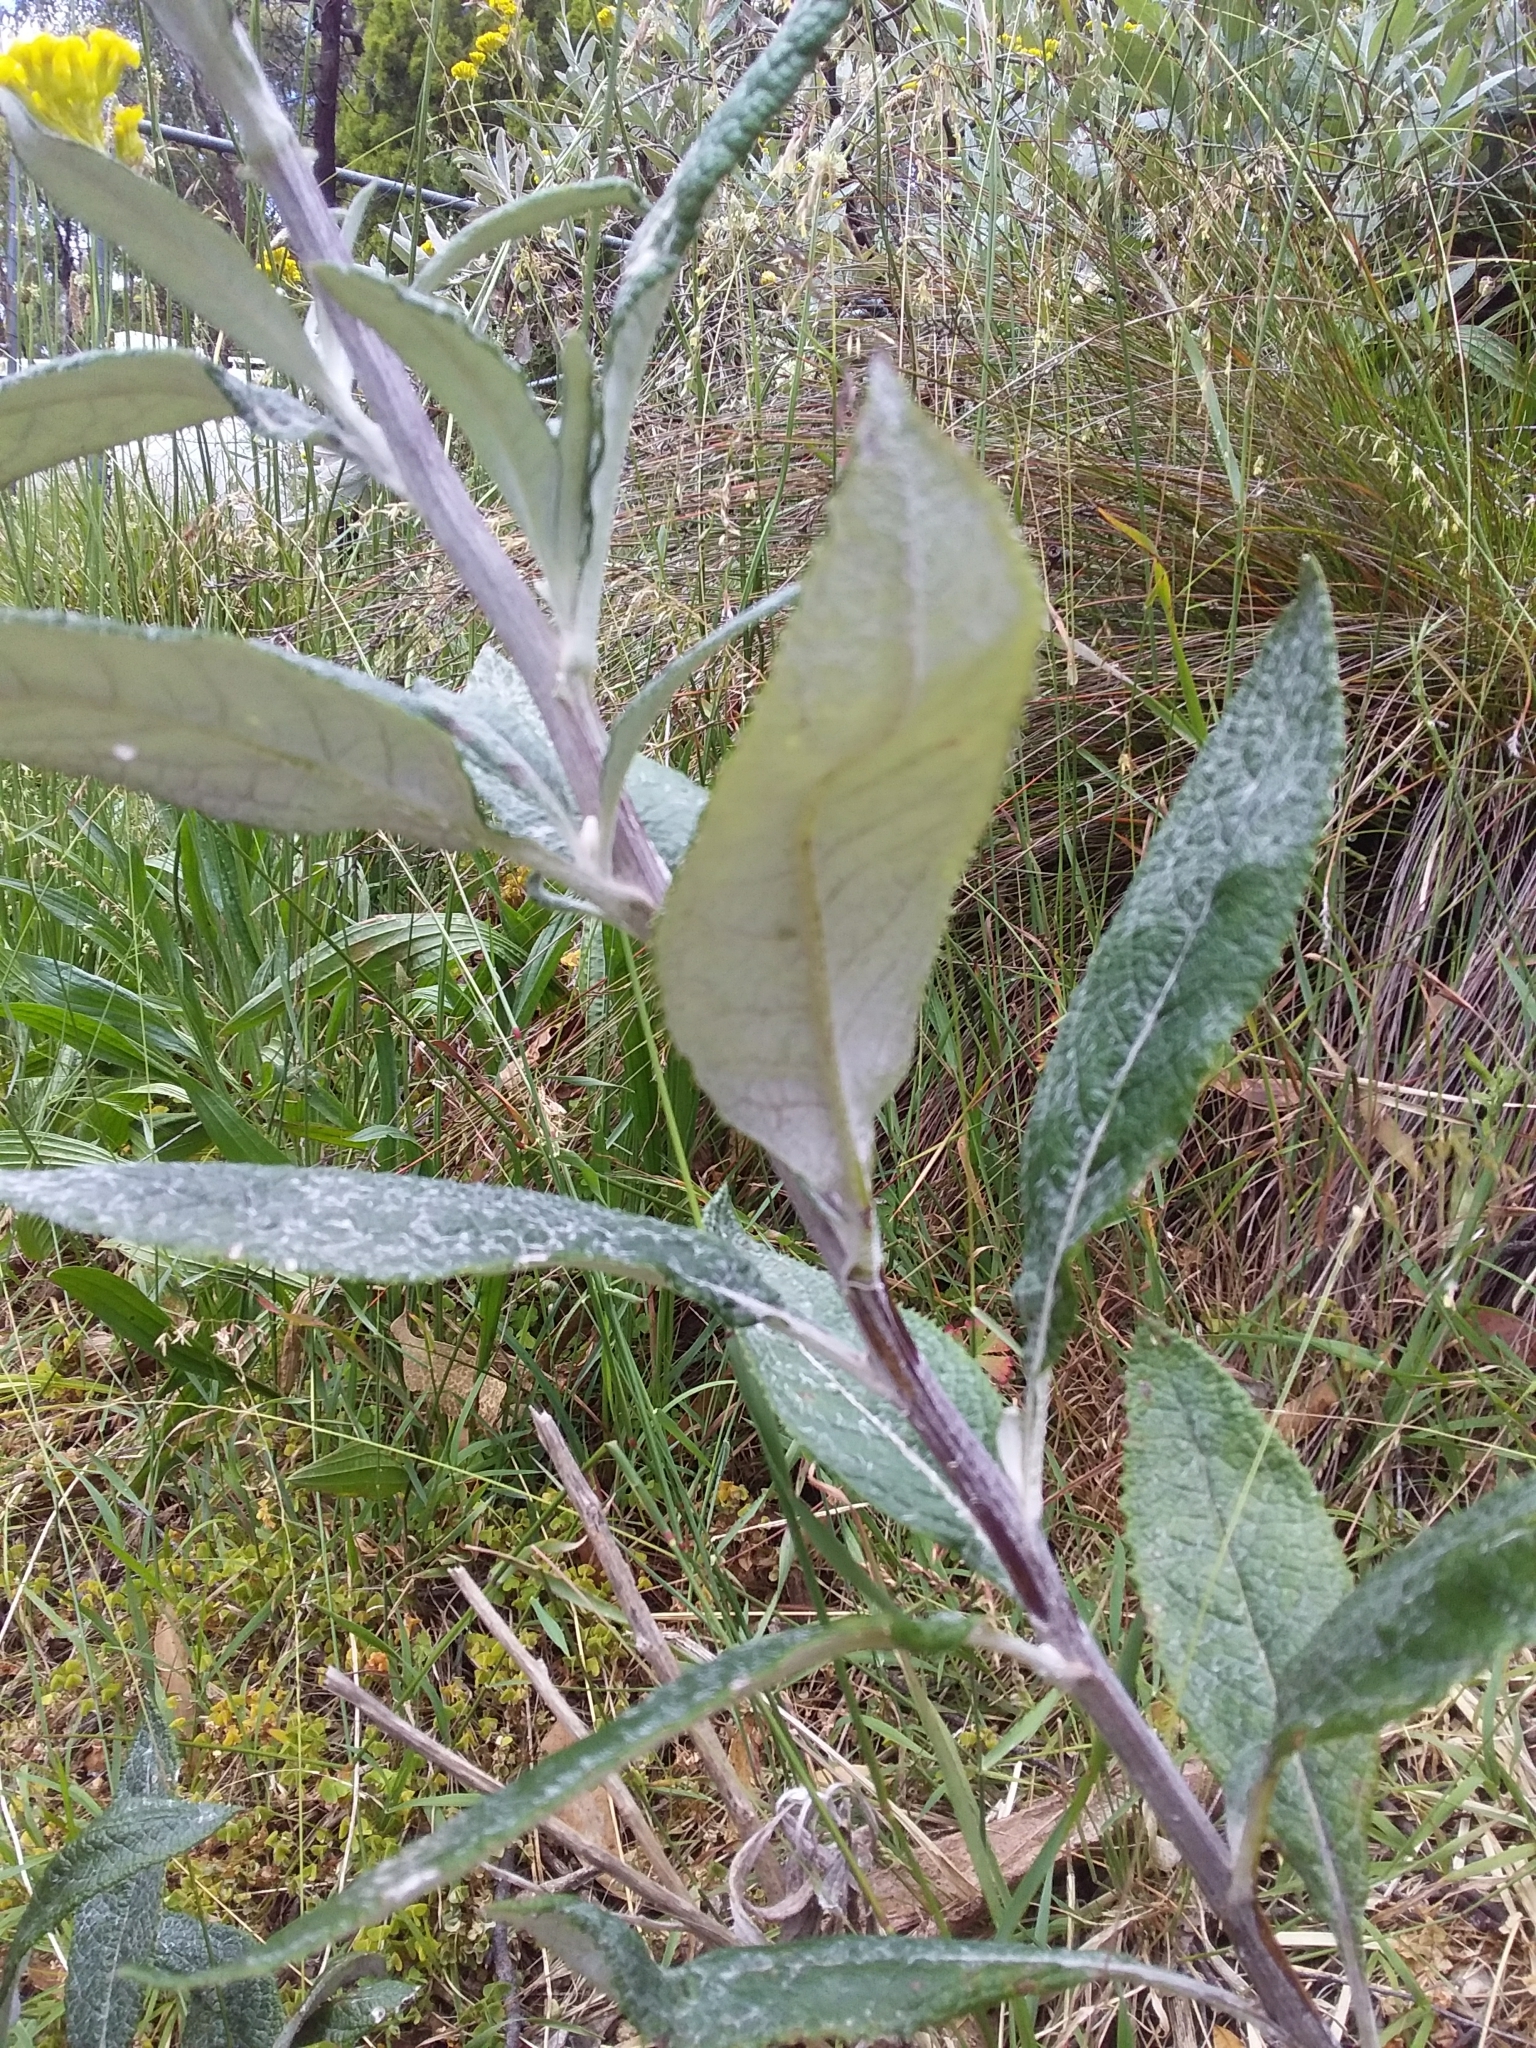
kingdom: Plantae
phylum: Tracheophyta
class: Magnoliopsida
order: Asterales
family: Asteraceae
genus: Senecio
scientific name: Senecio hypoleucus
